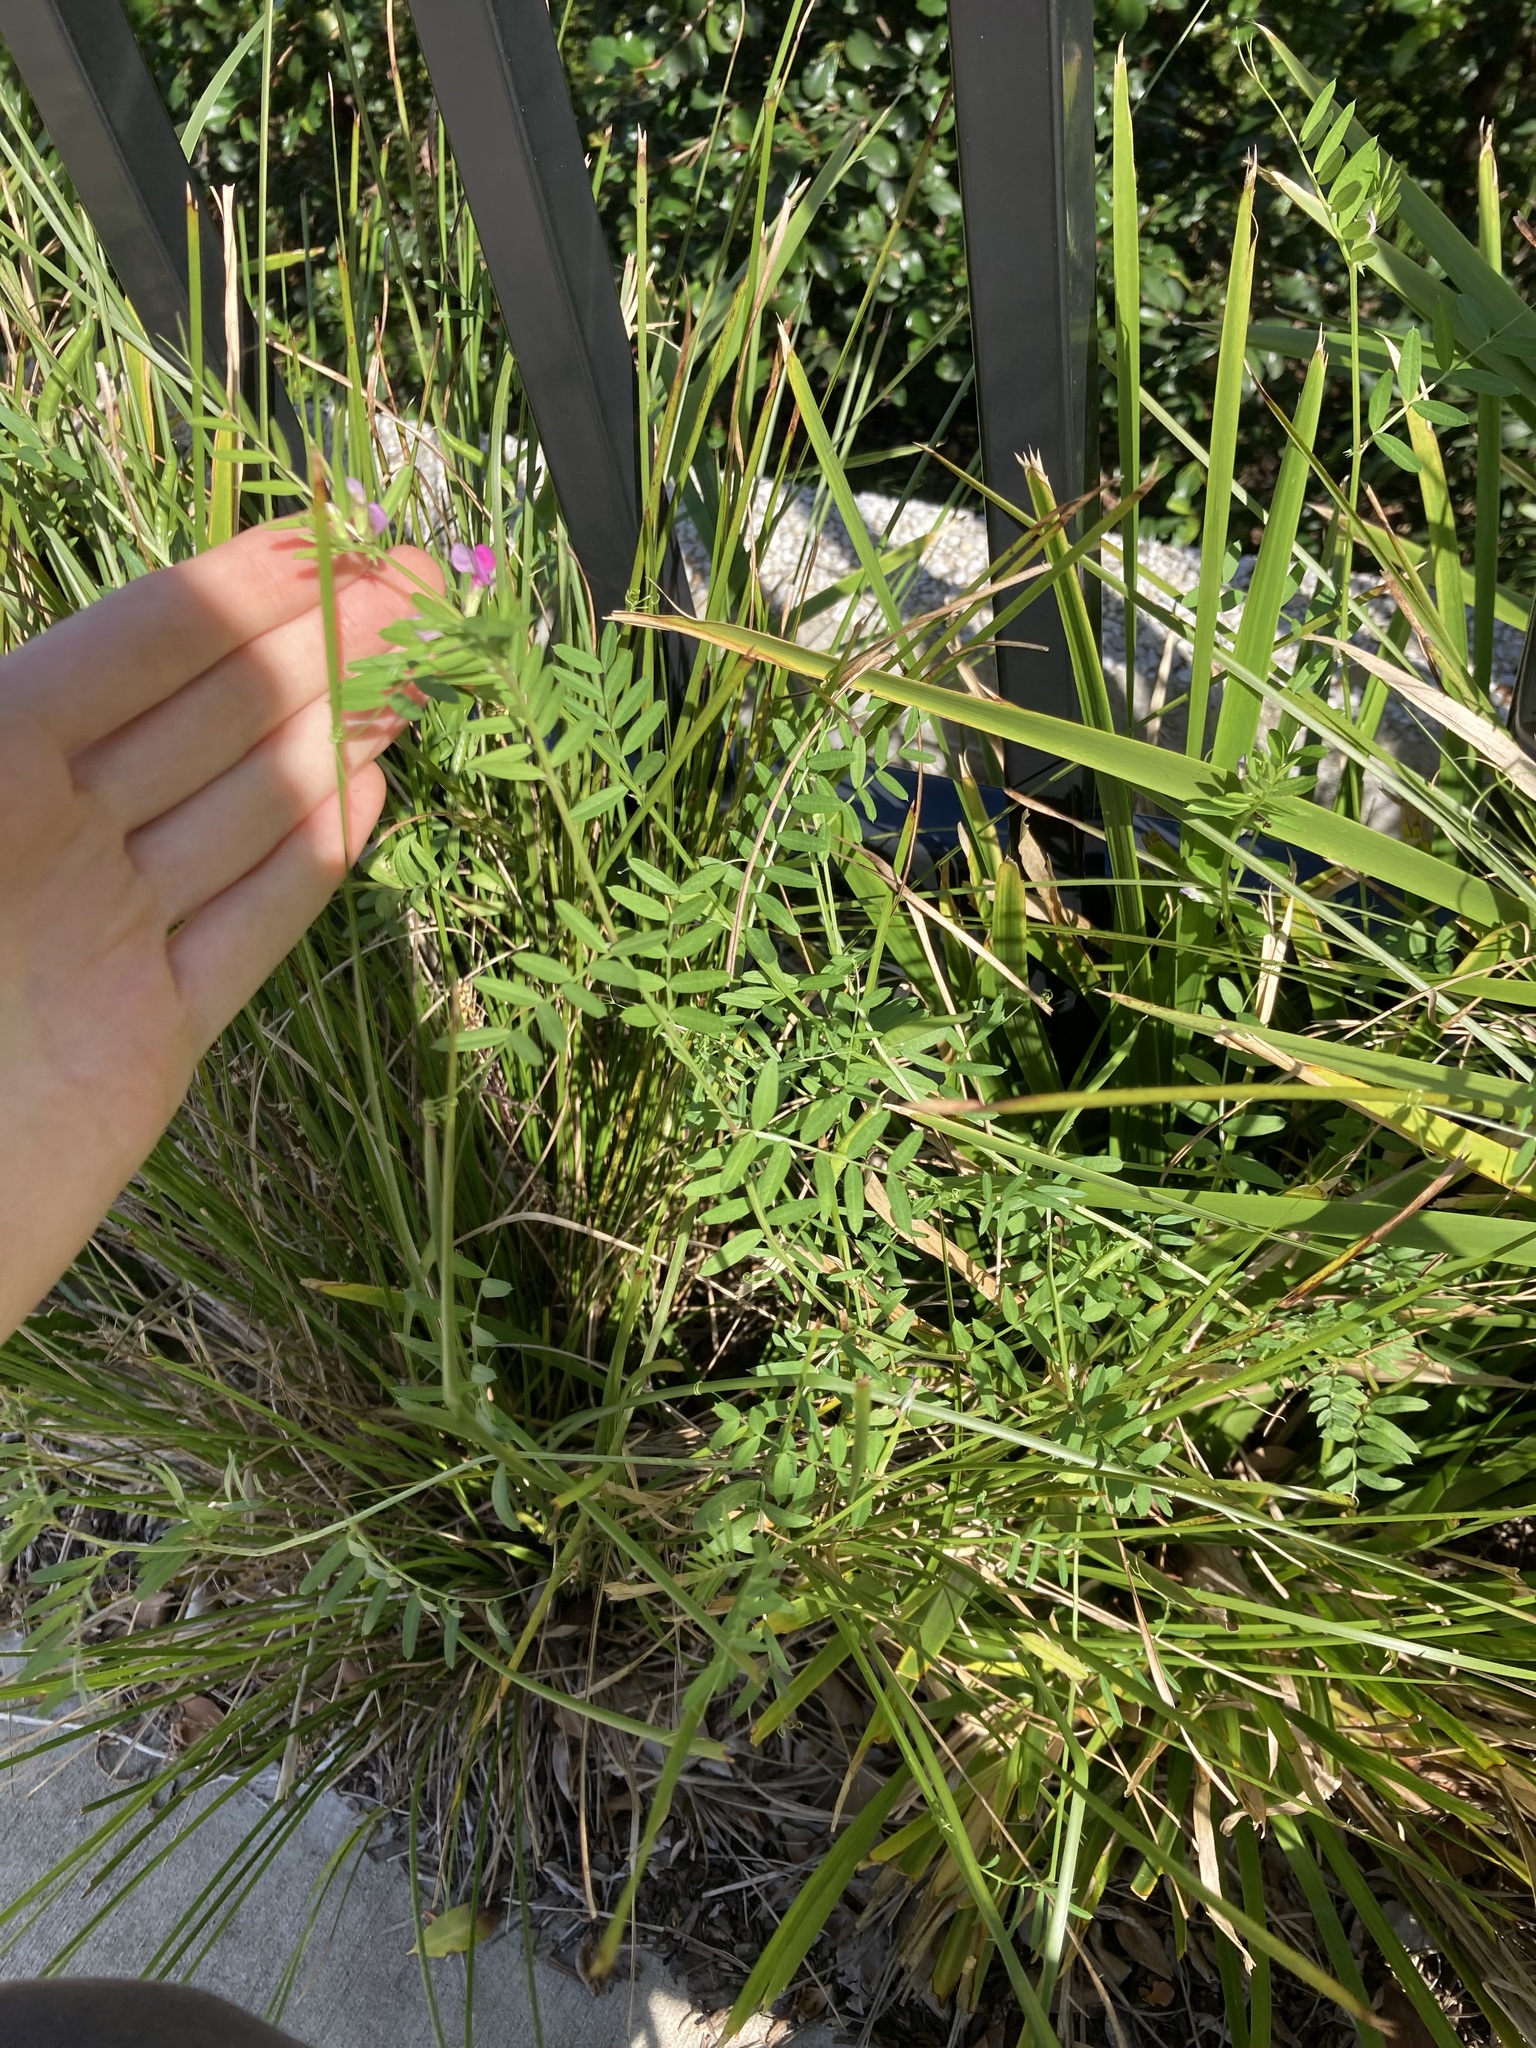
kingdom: Plantae
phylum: Tracheophyta
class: Magnoliopsida
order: Fabales
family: Fabaceae
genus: Vicia
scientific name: Vicia sativa
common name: Garden vetch
